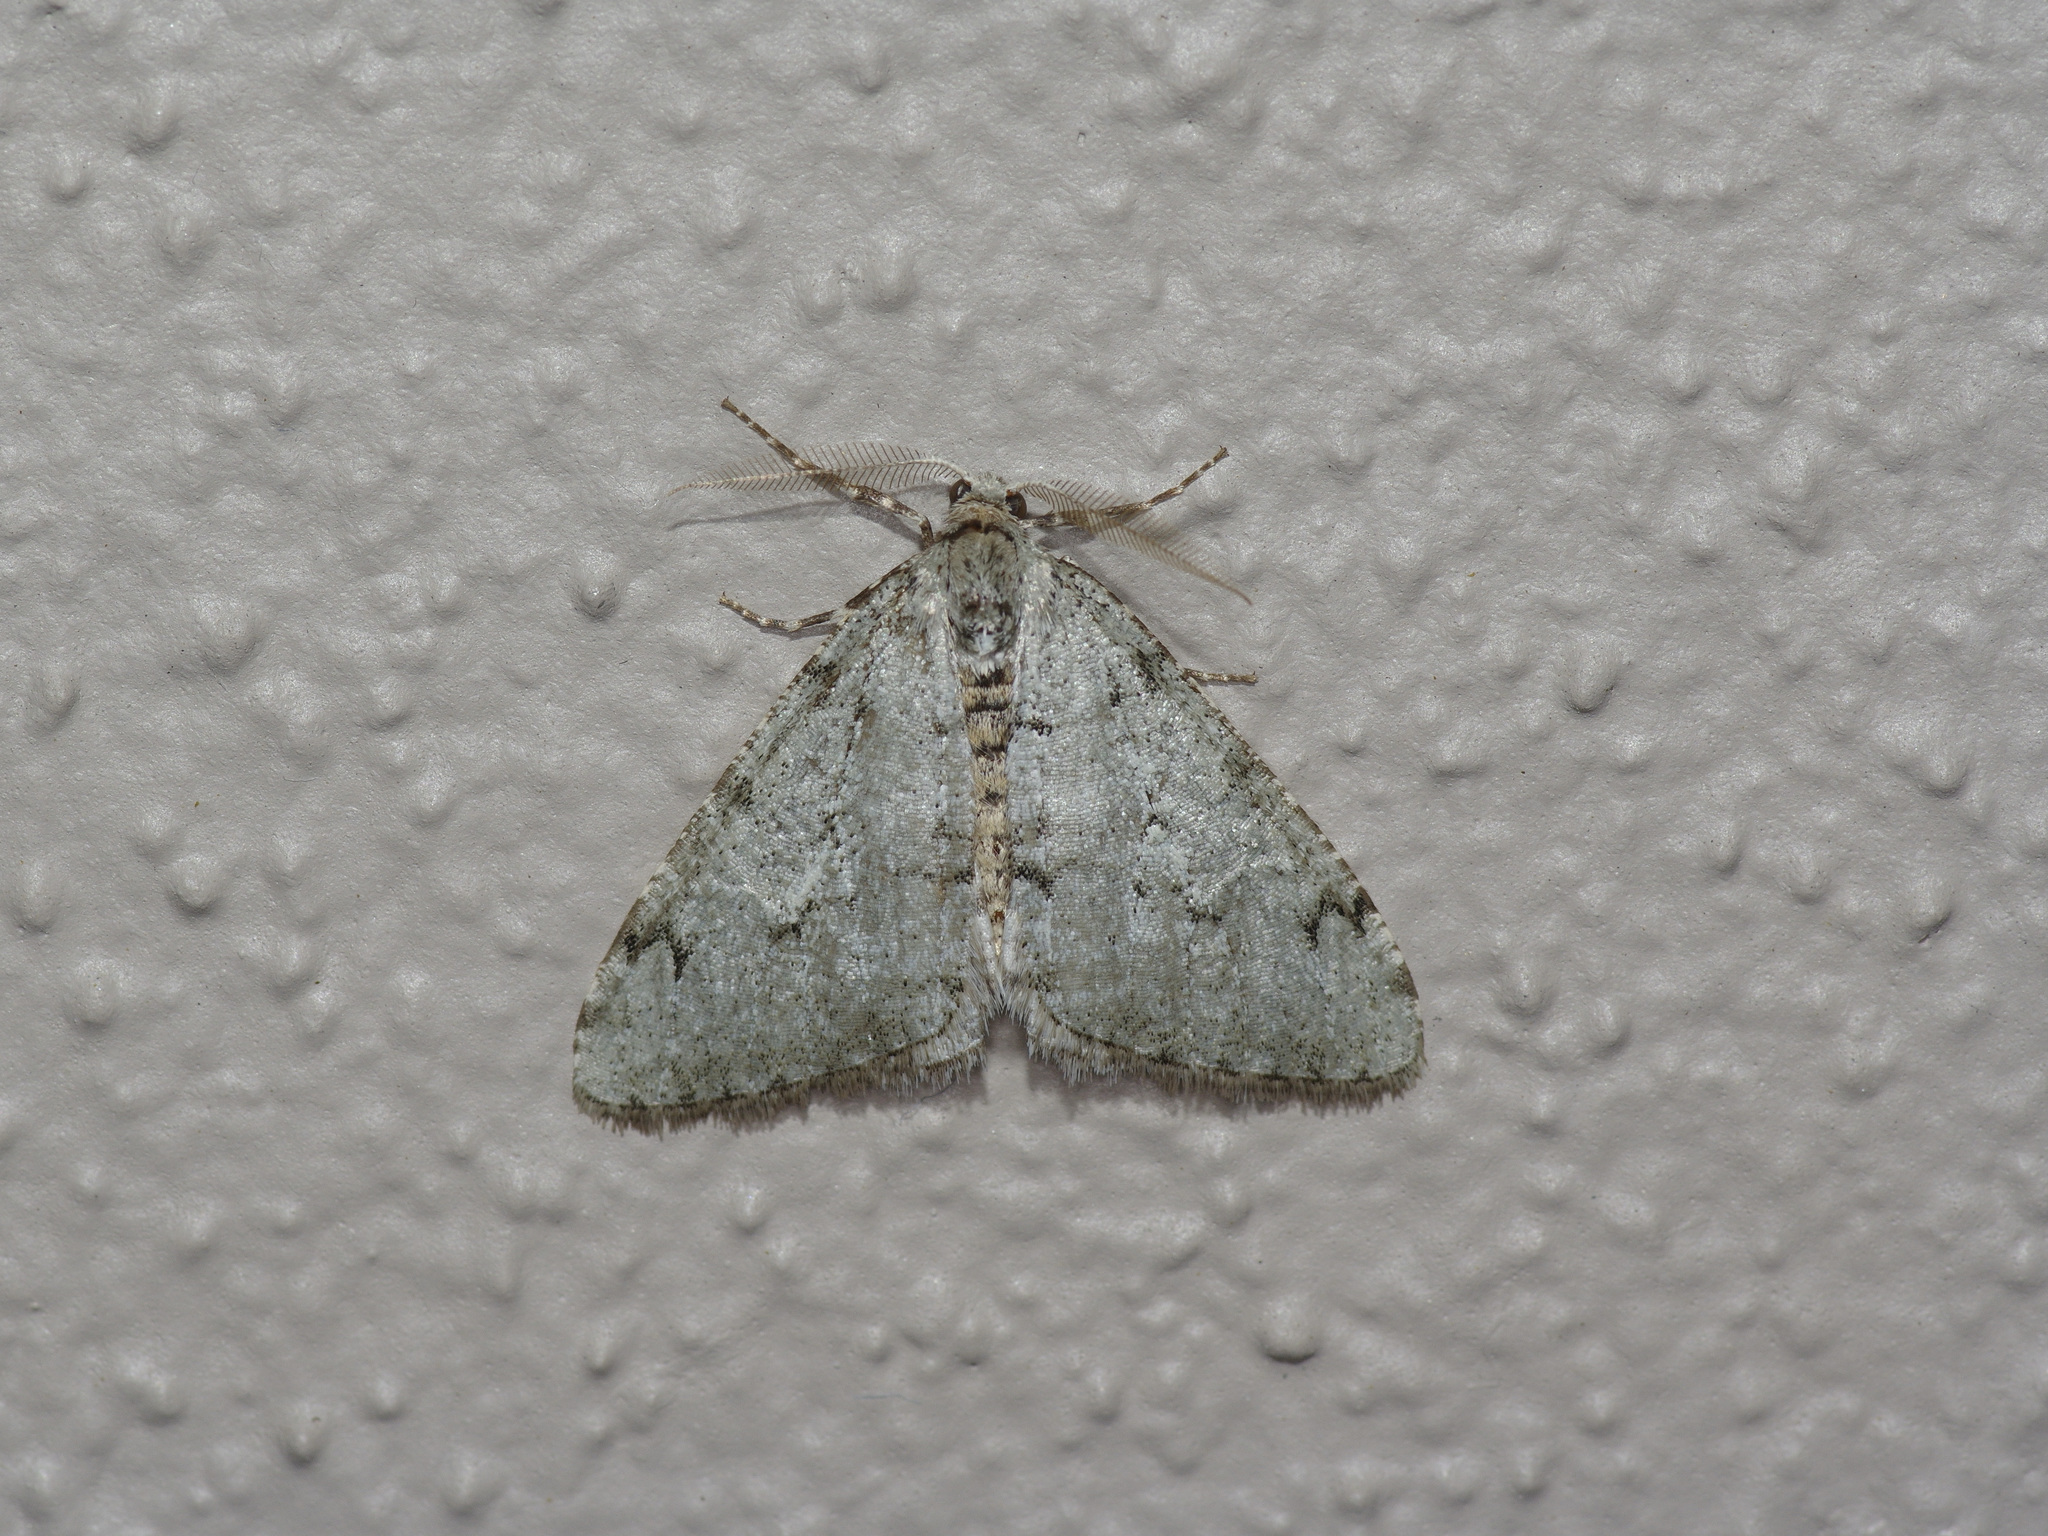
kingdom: Animalia
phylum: Arthropoda
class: Insecta
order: Lepidoptera
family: Geometridae
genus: Phigalia
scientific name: Phigalia strigataria
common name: Small phigalia
